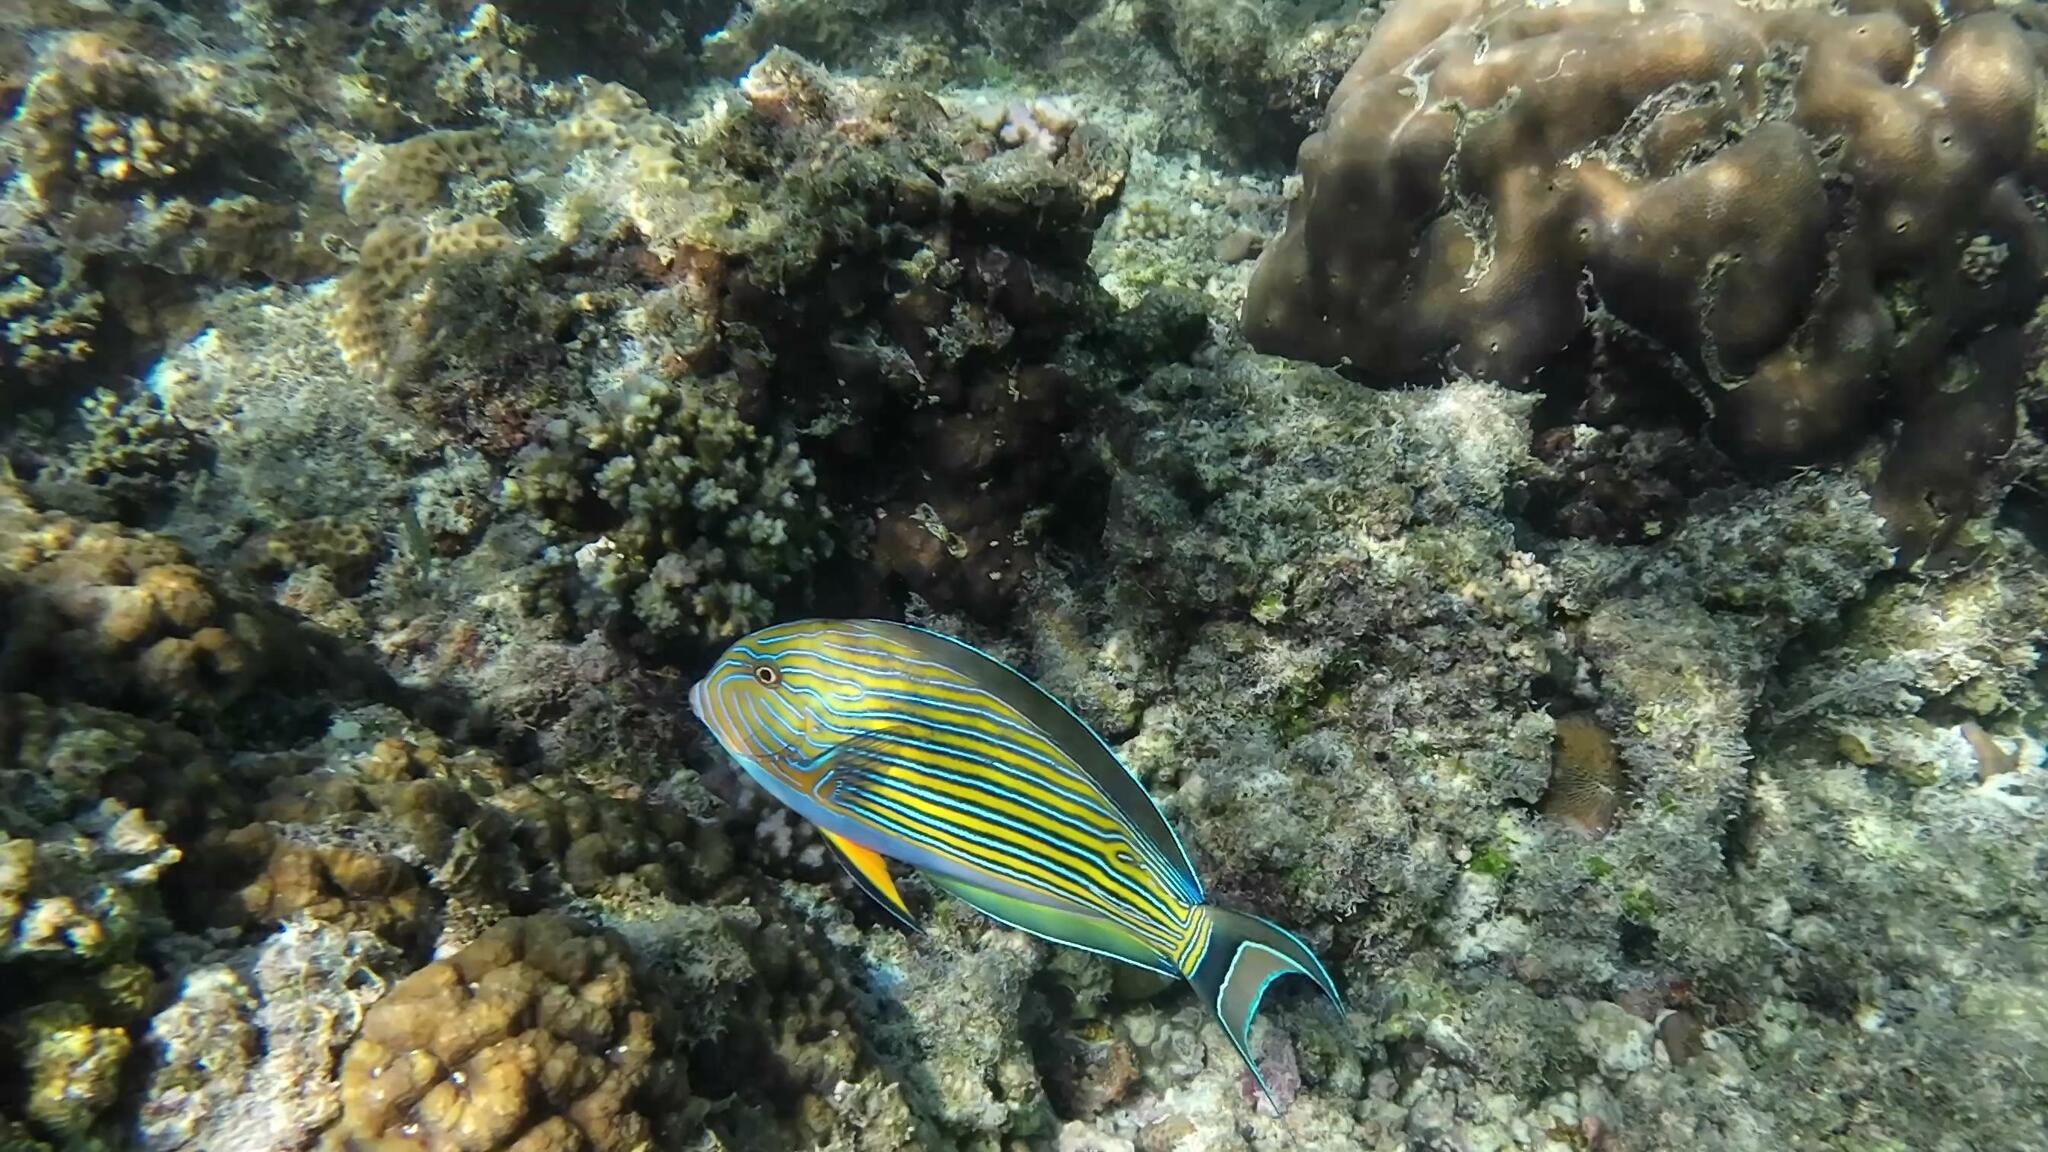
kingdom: Animalia
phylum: Chordata
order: Perciformes
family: Acanthuridae
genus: Acanthurus
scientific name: Acanthurus lineatus
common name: Striped surgeonfish
